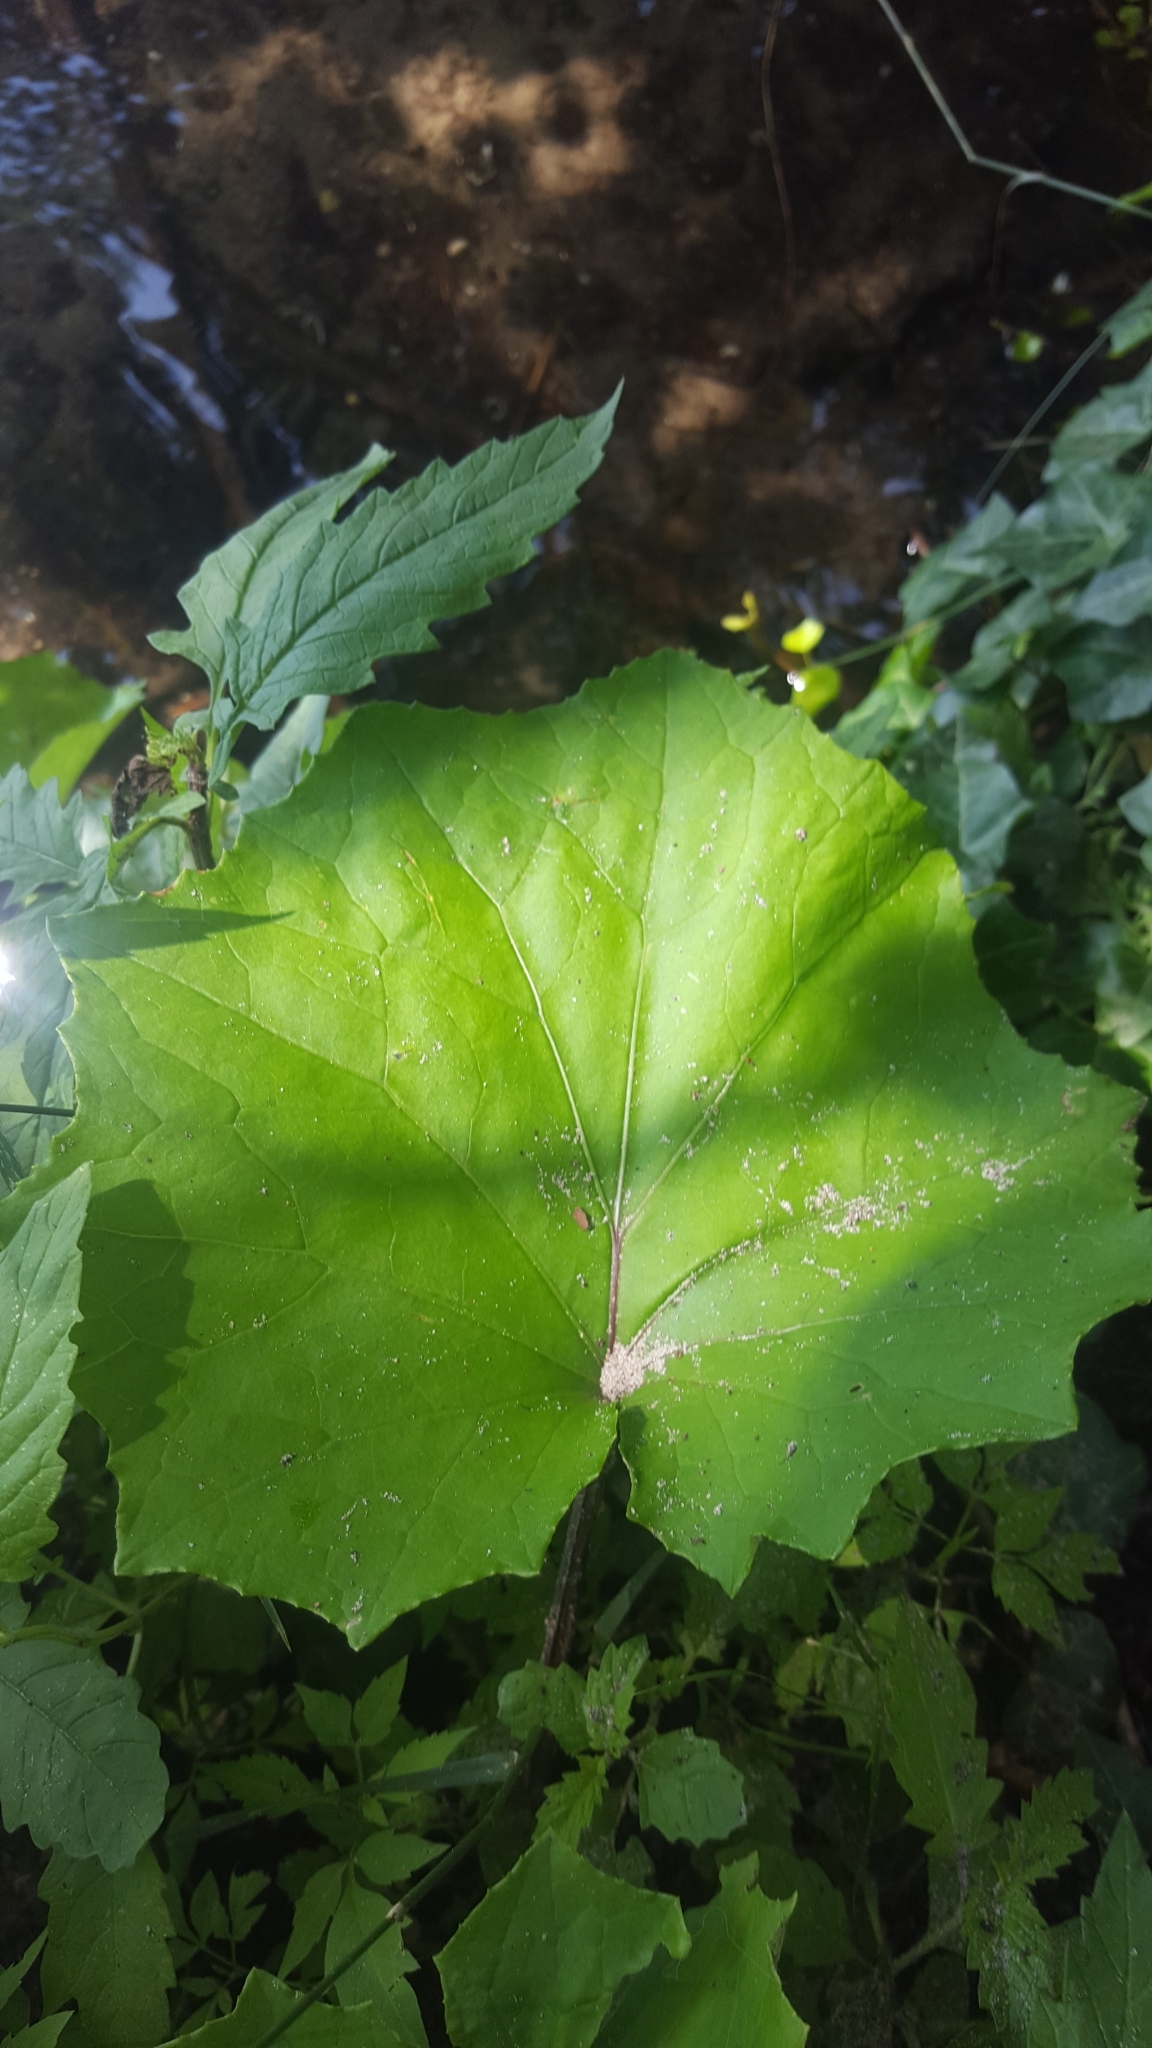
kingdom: Plantae
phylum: Tracheophyta
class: Magnoliopsida
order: Asterales
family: Asteraceae
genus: Tussilago
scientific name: Tussilago farfara
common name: Coltsfoot
